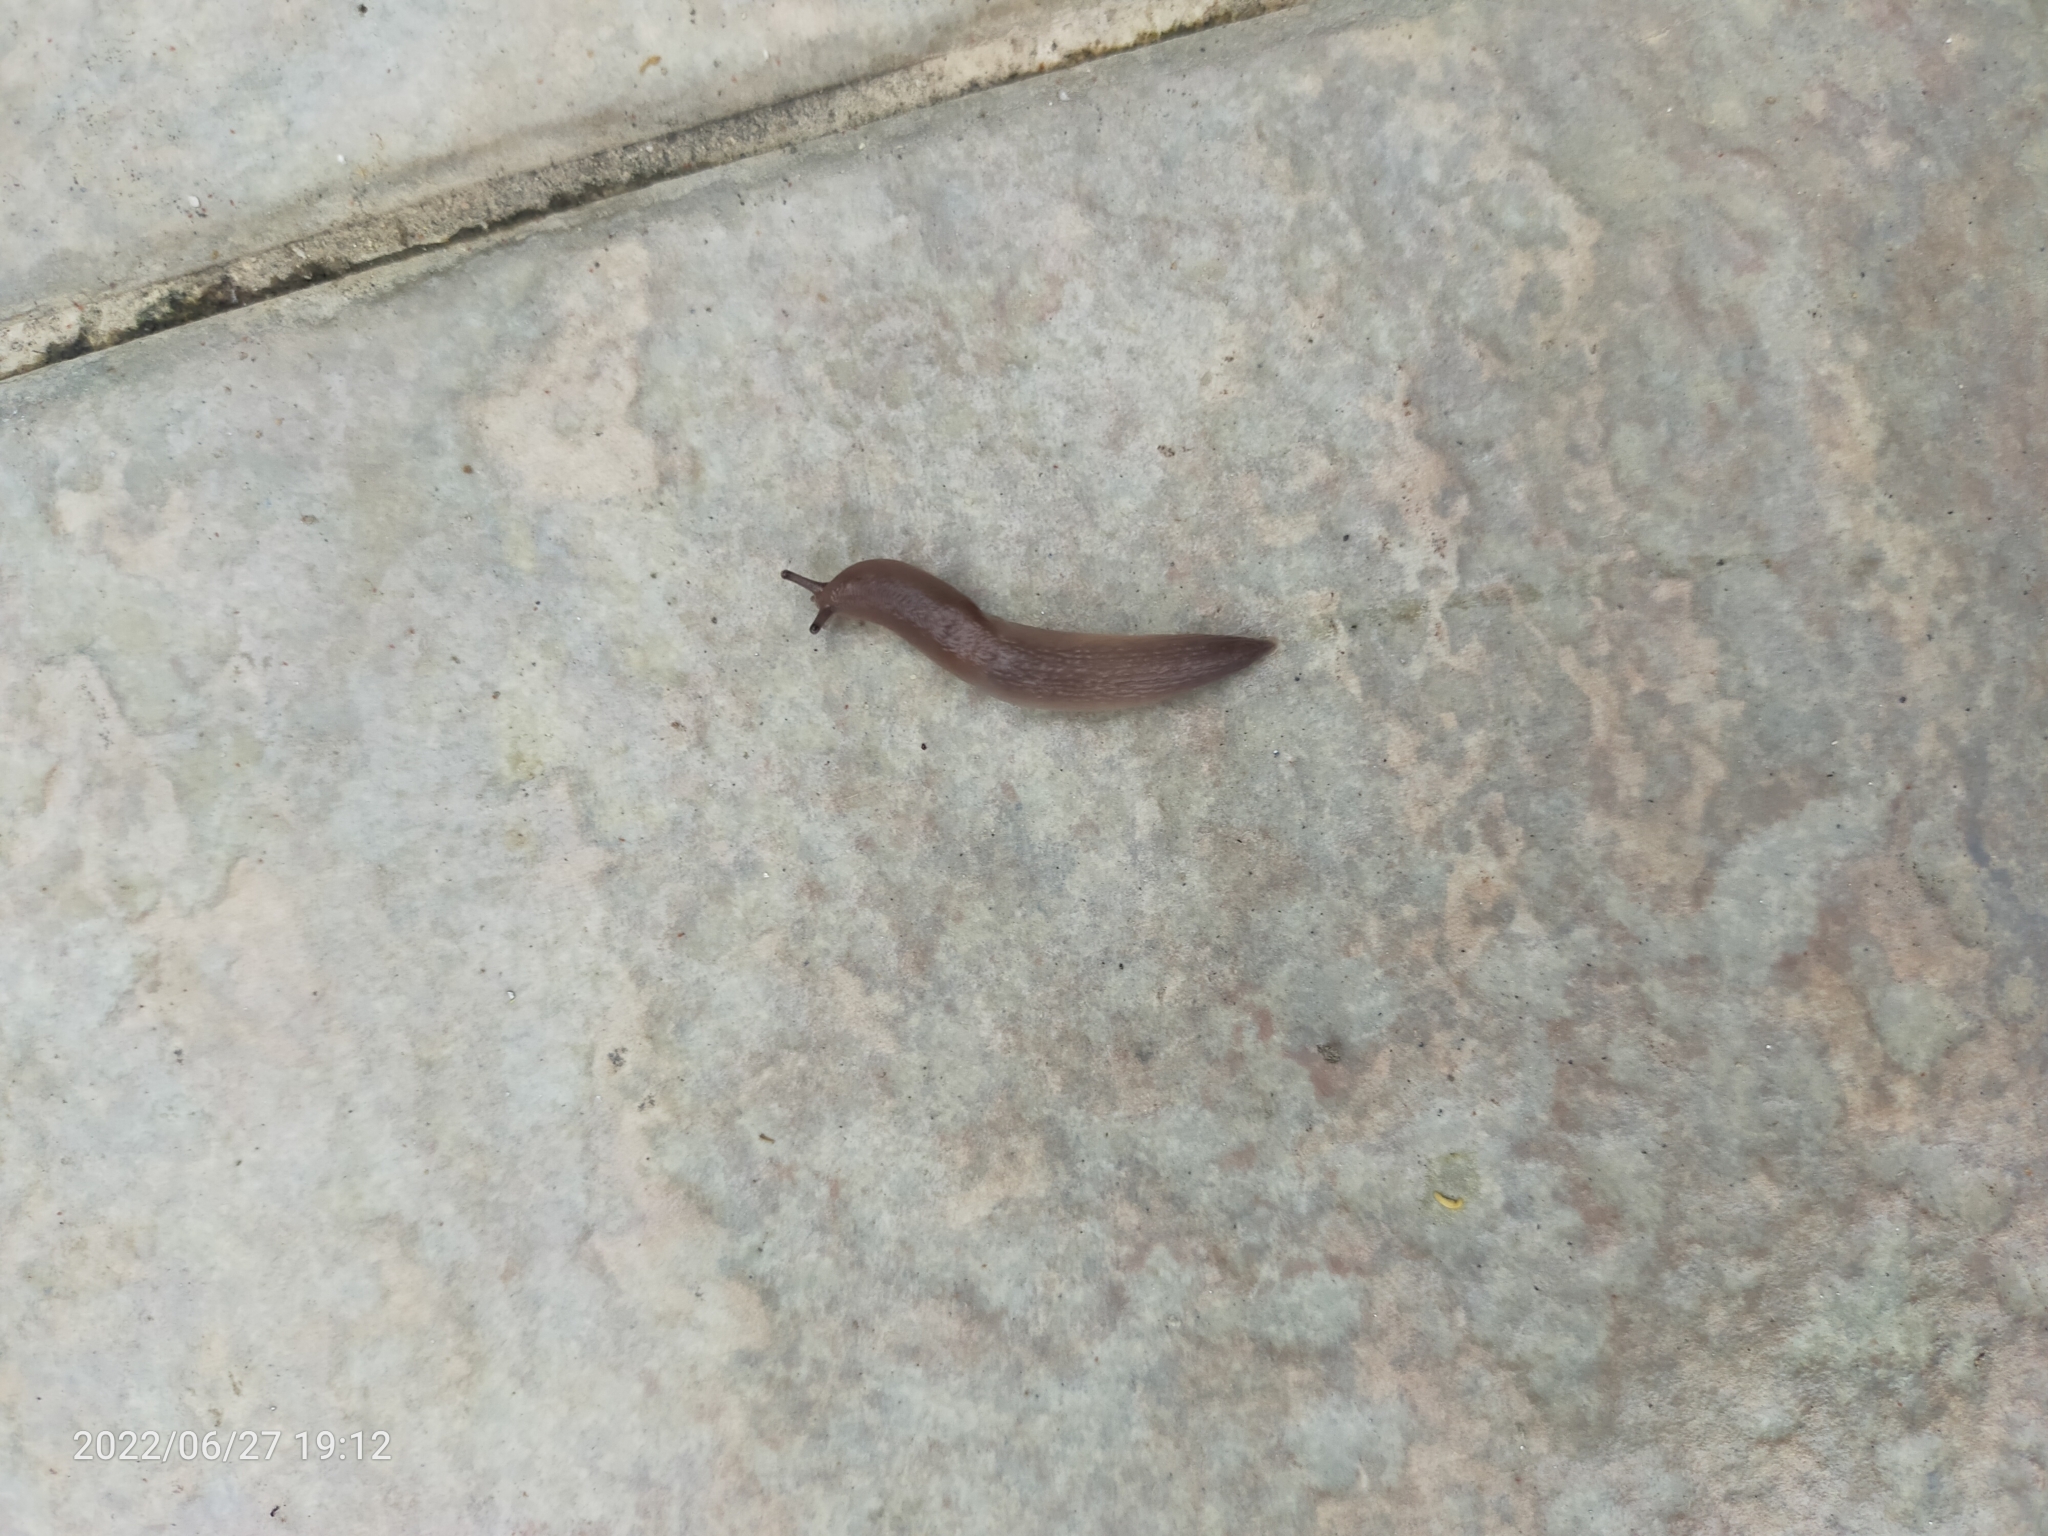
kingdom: Animalia
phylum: Mollusca
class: Gastropoda
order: Stylommatophora
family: Agriolimacidae
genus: Deroceras
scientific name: Deroceras
